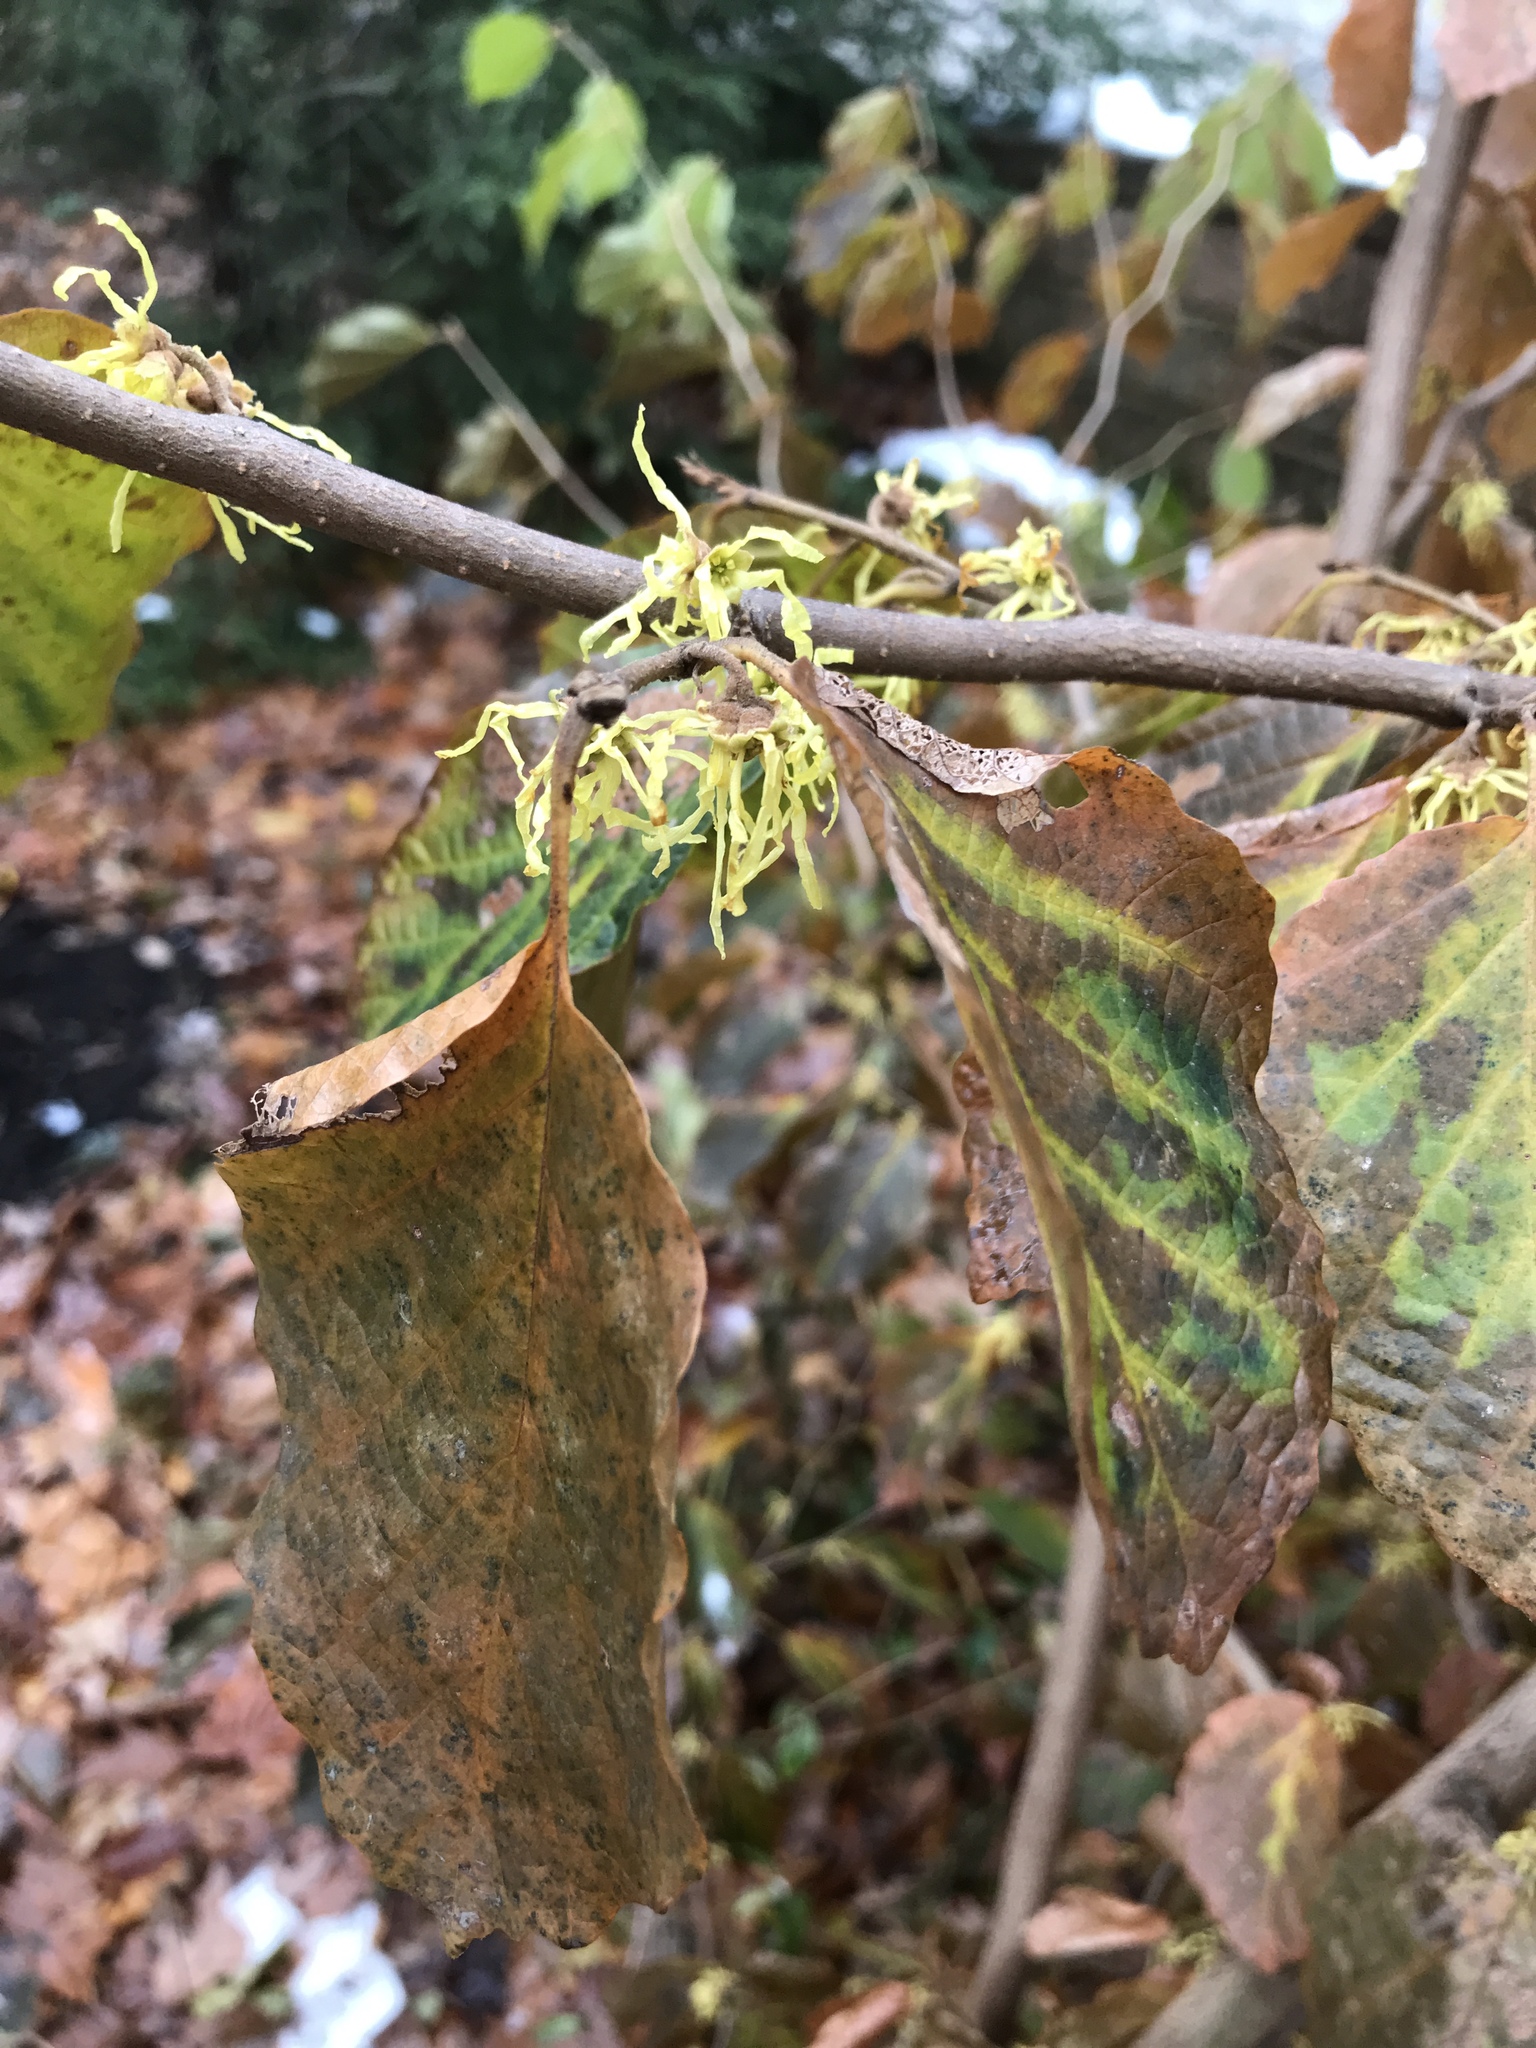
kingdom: Plantae
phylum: Tracheophyta
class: Magnoliopsida
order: Saxifragales
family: Hamamelidaceae
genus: Hamamelis
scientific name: Hamamelis virginiana
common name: Witch-hazel
